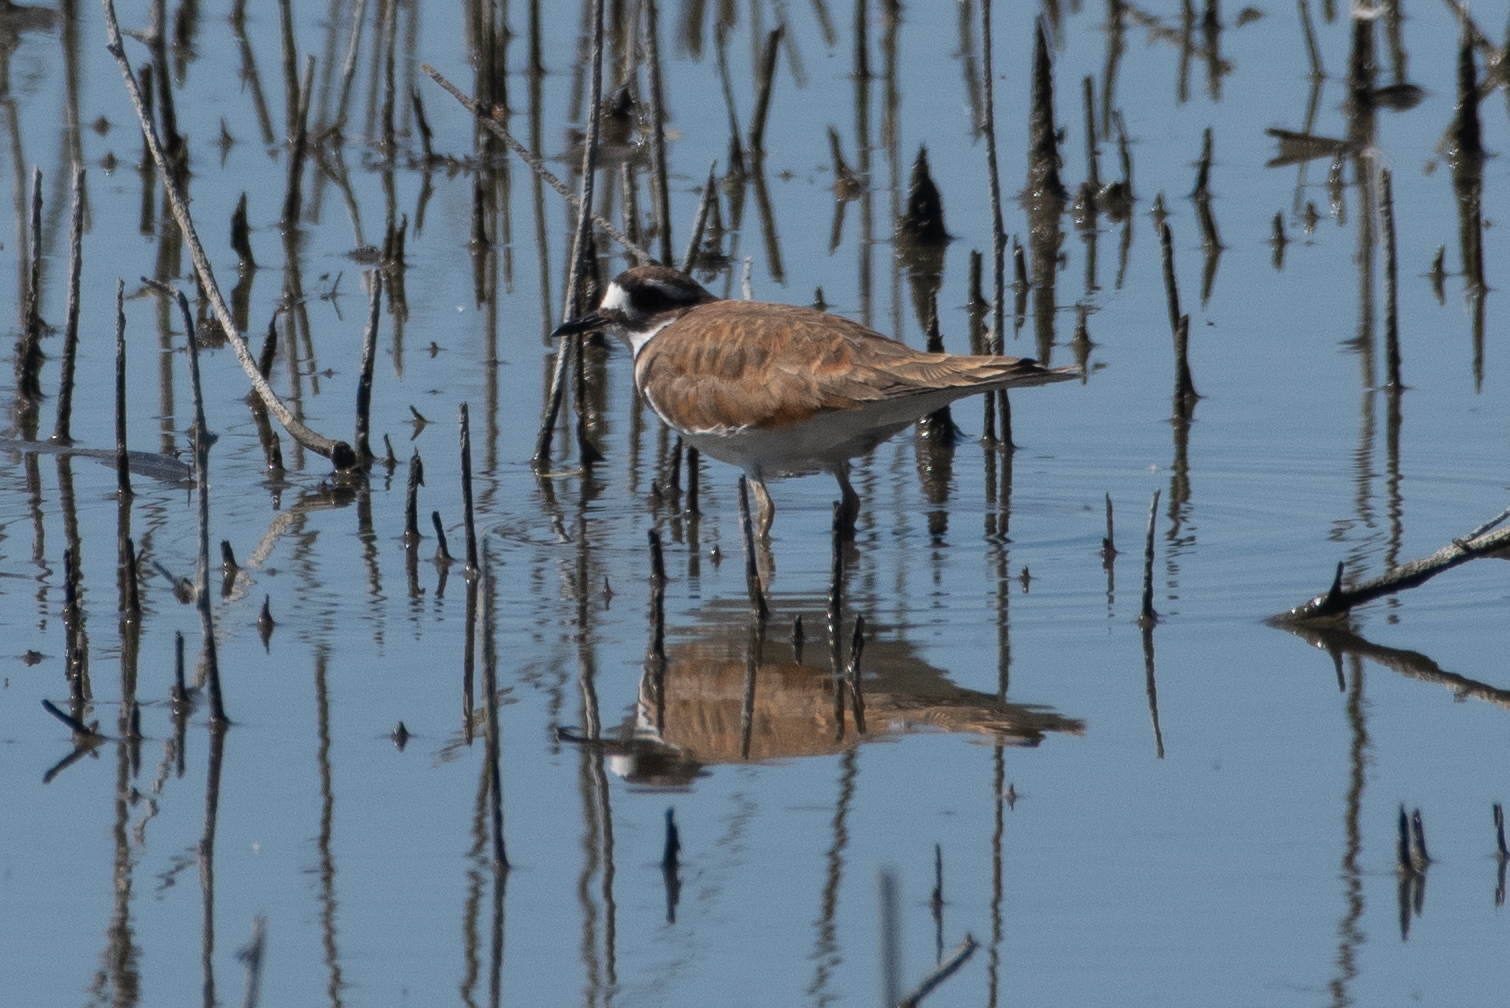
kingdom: Animalia
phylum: Chordata
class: Aves
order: Charadriiformes
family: Charadriidae
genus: Charadrius
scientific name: Charadrius vociferus
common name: Killdeer
